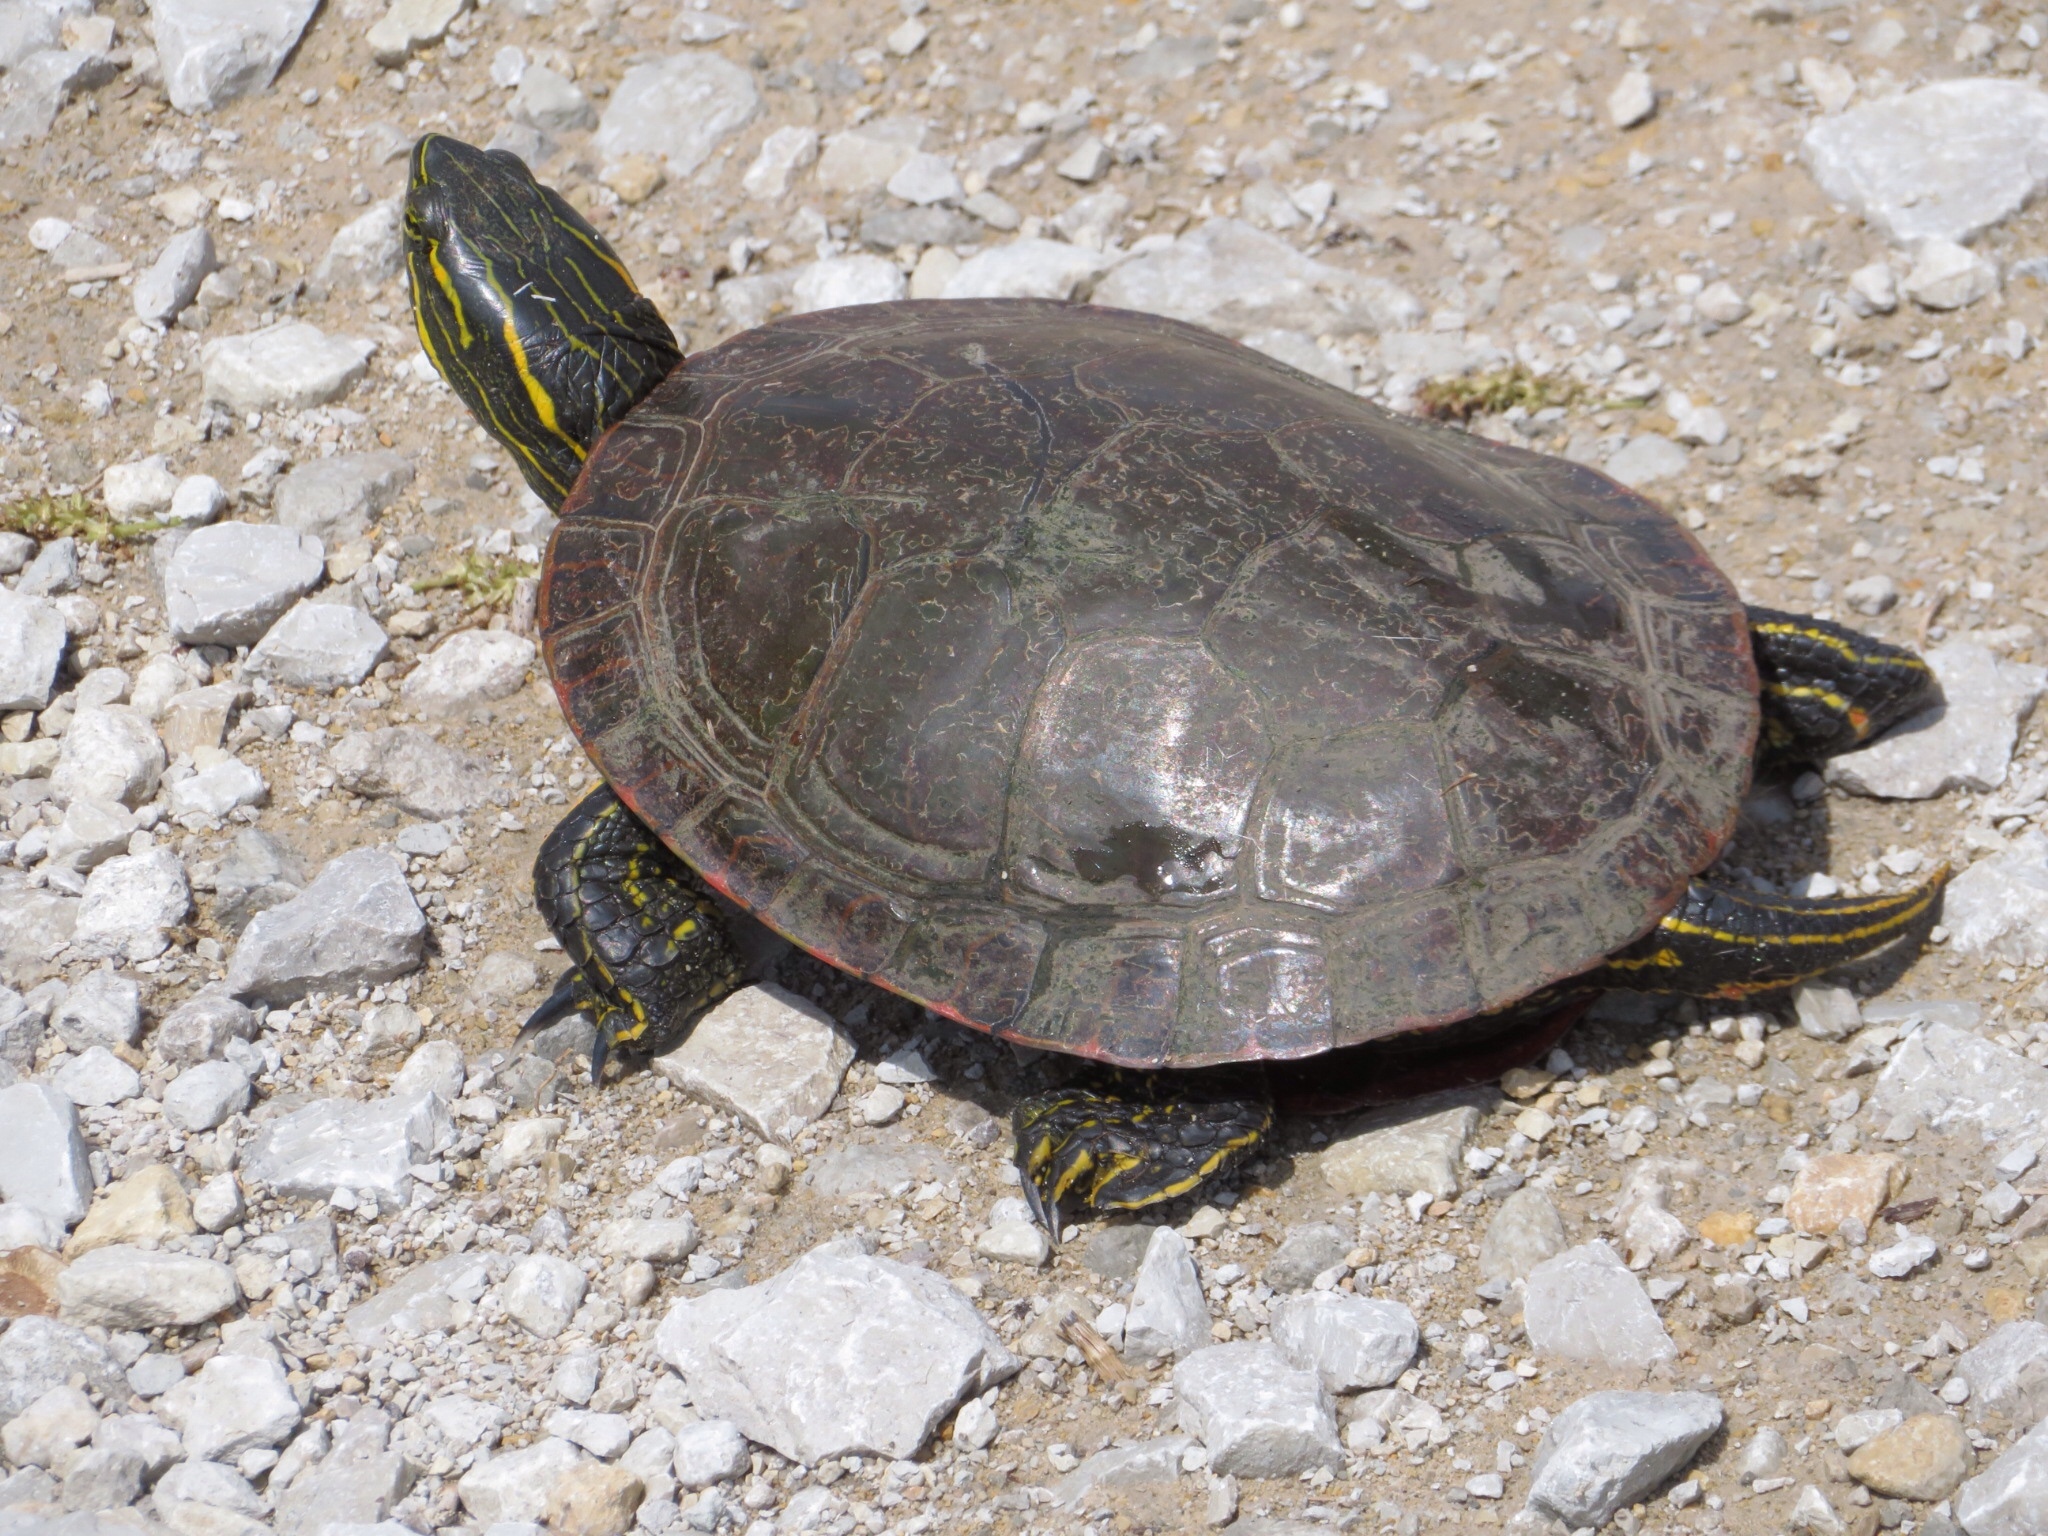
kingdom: Animalia
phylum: Chordata
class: Testudines
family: Emydidae
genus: Chrysemys
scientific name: Chrysemys picta
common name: Painted turtle
